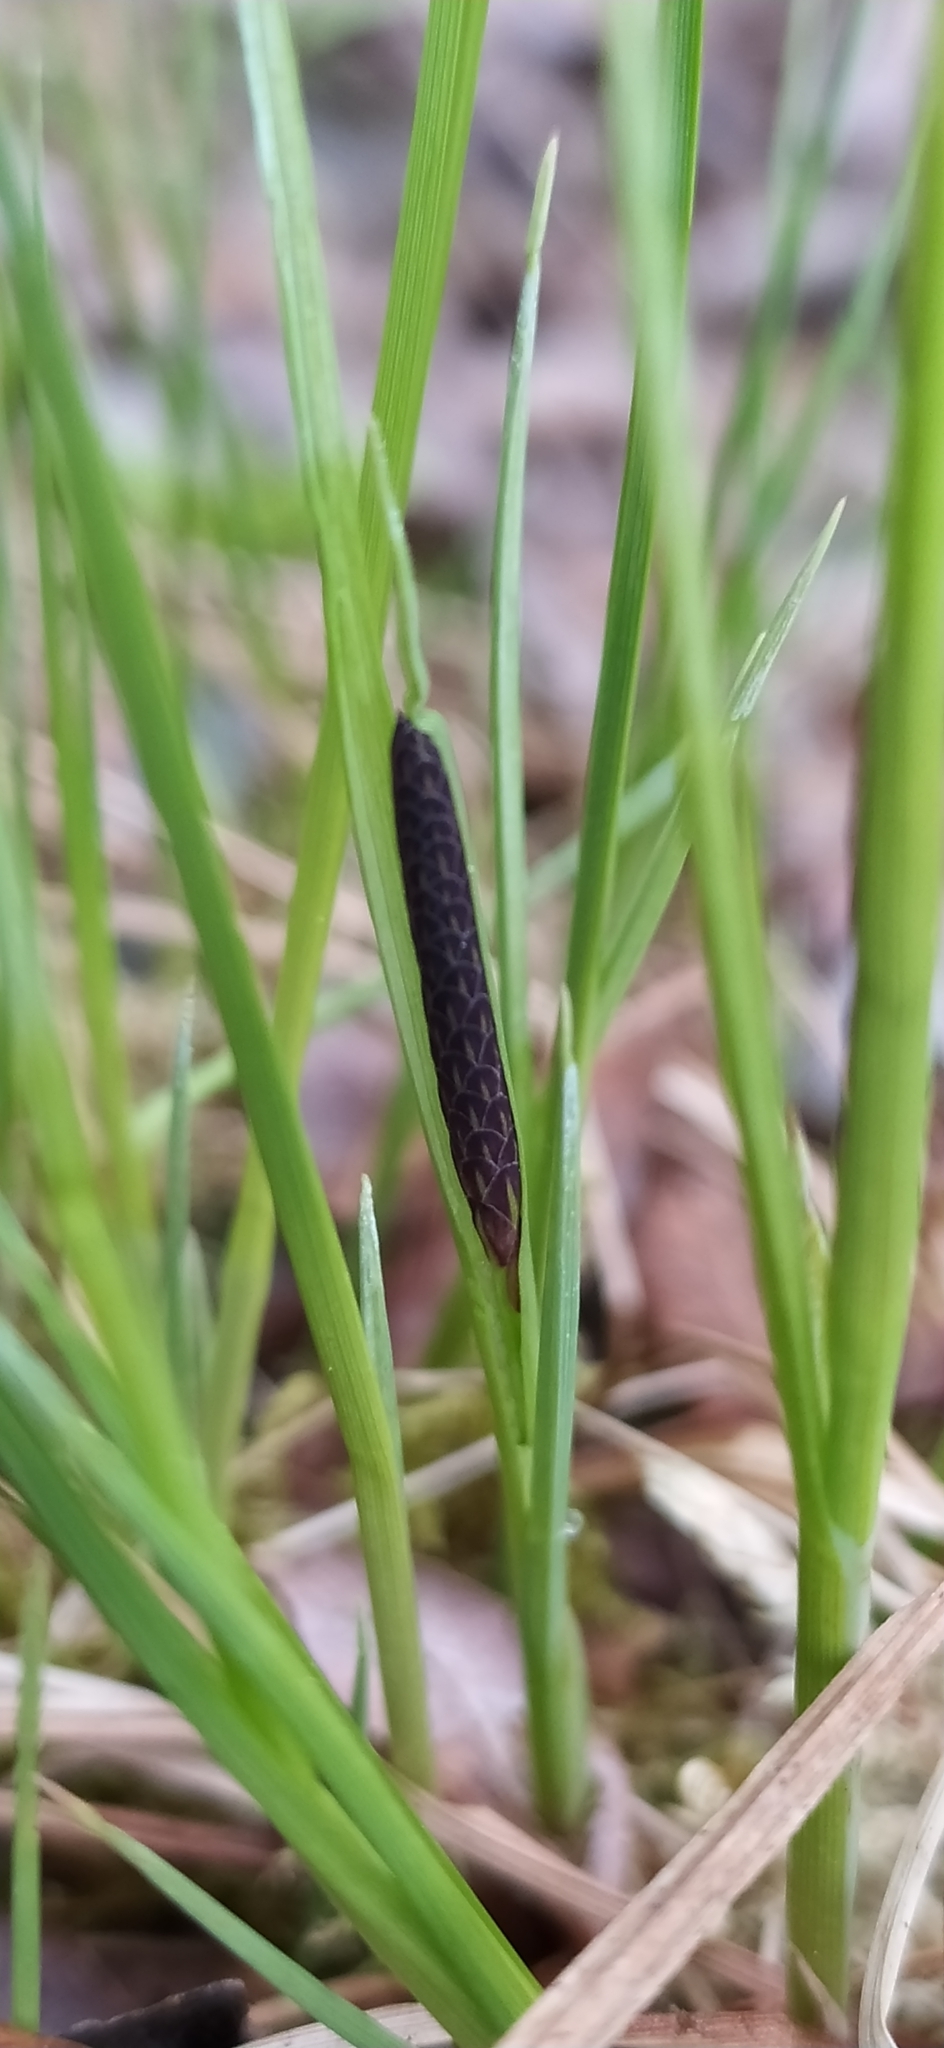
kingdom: Plantae
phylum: Tracheophyta
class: Liliopsida
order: Poales
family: Cyperaceae
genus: Carex
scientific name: Carex cespitosa
